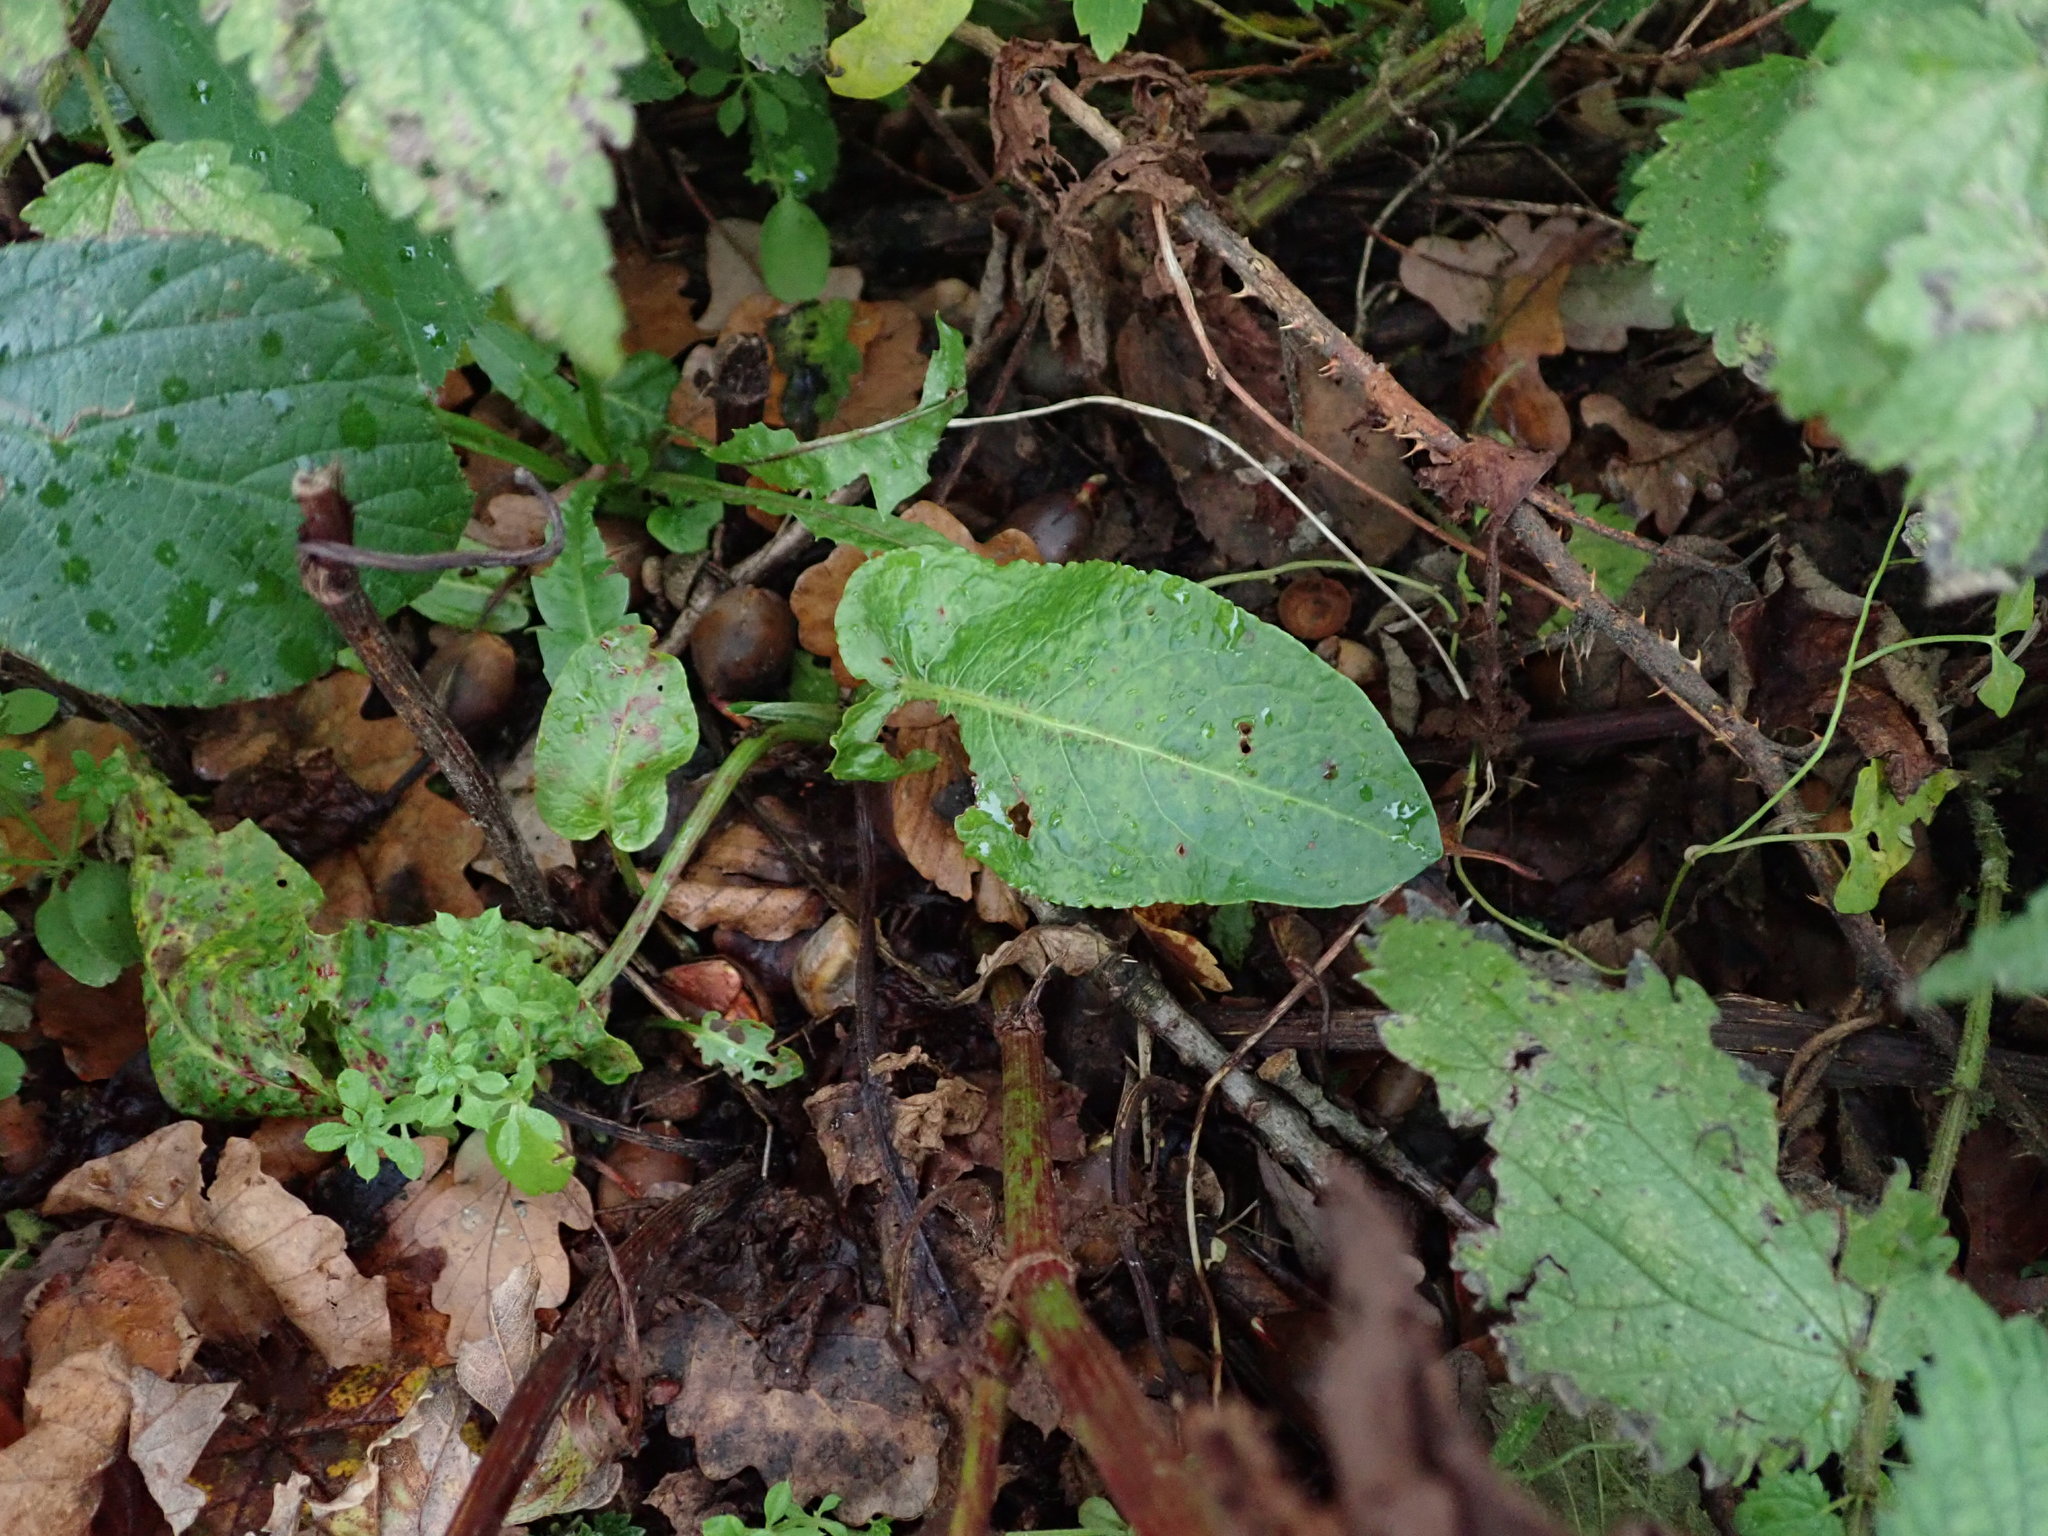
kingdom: Plantae
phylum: Tracheophyta
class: Magnoliopsida
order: Caryophyllales
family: Polygonaceae
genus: Rumex
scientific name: Rumex obtusifolius
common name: Bitter dock
